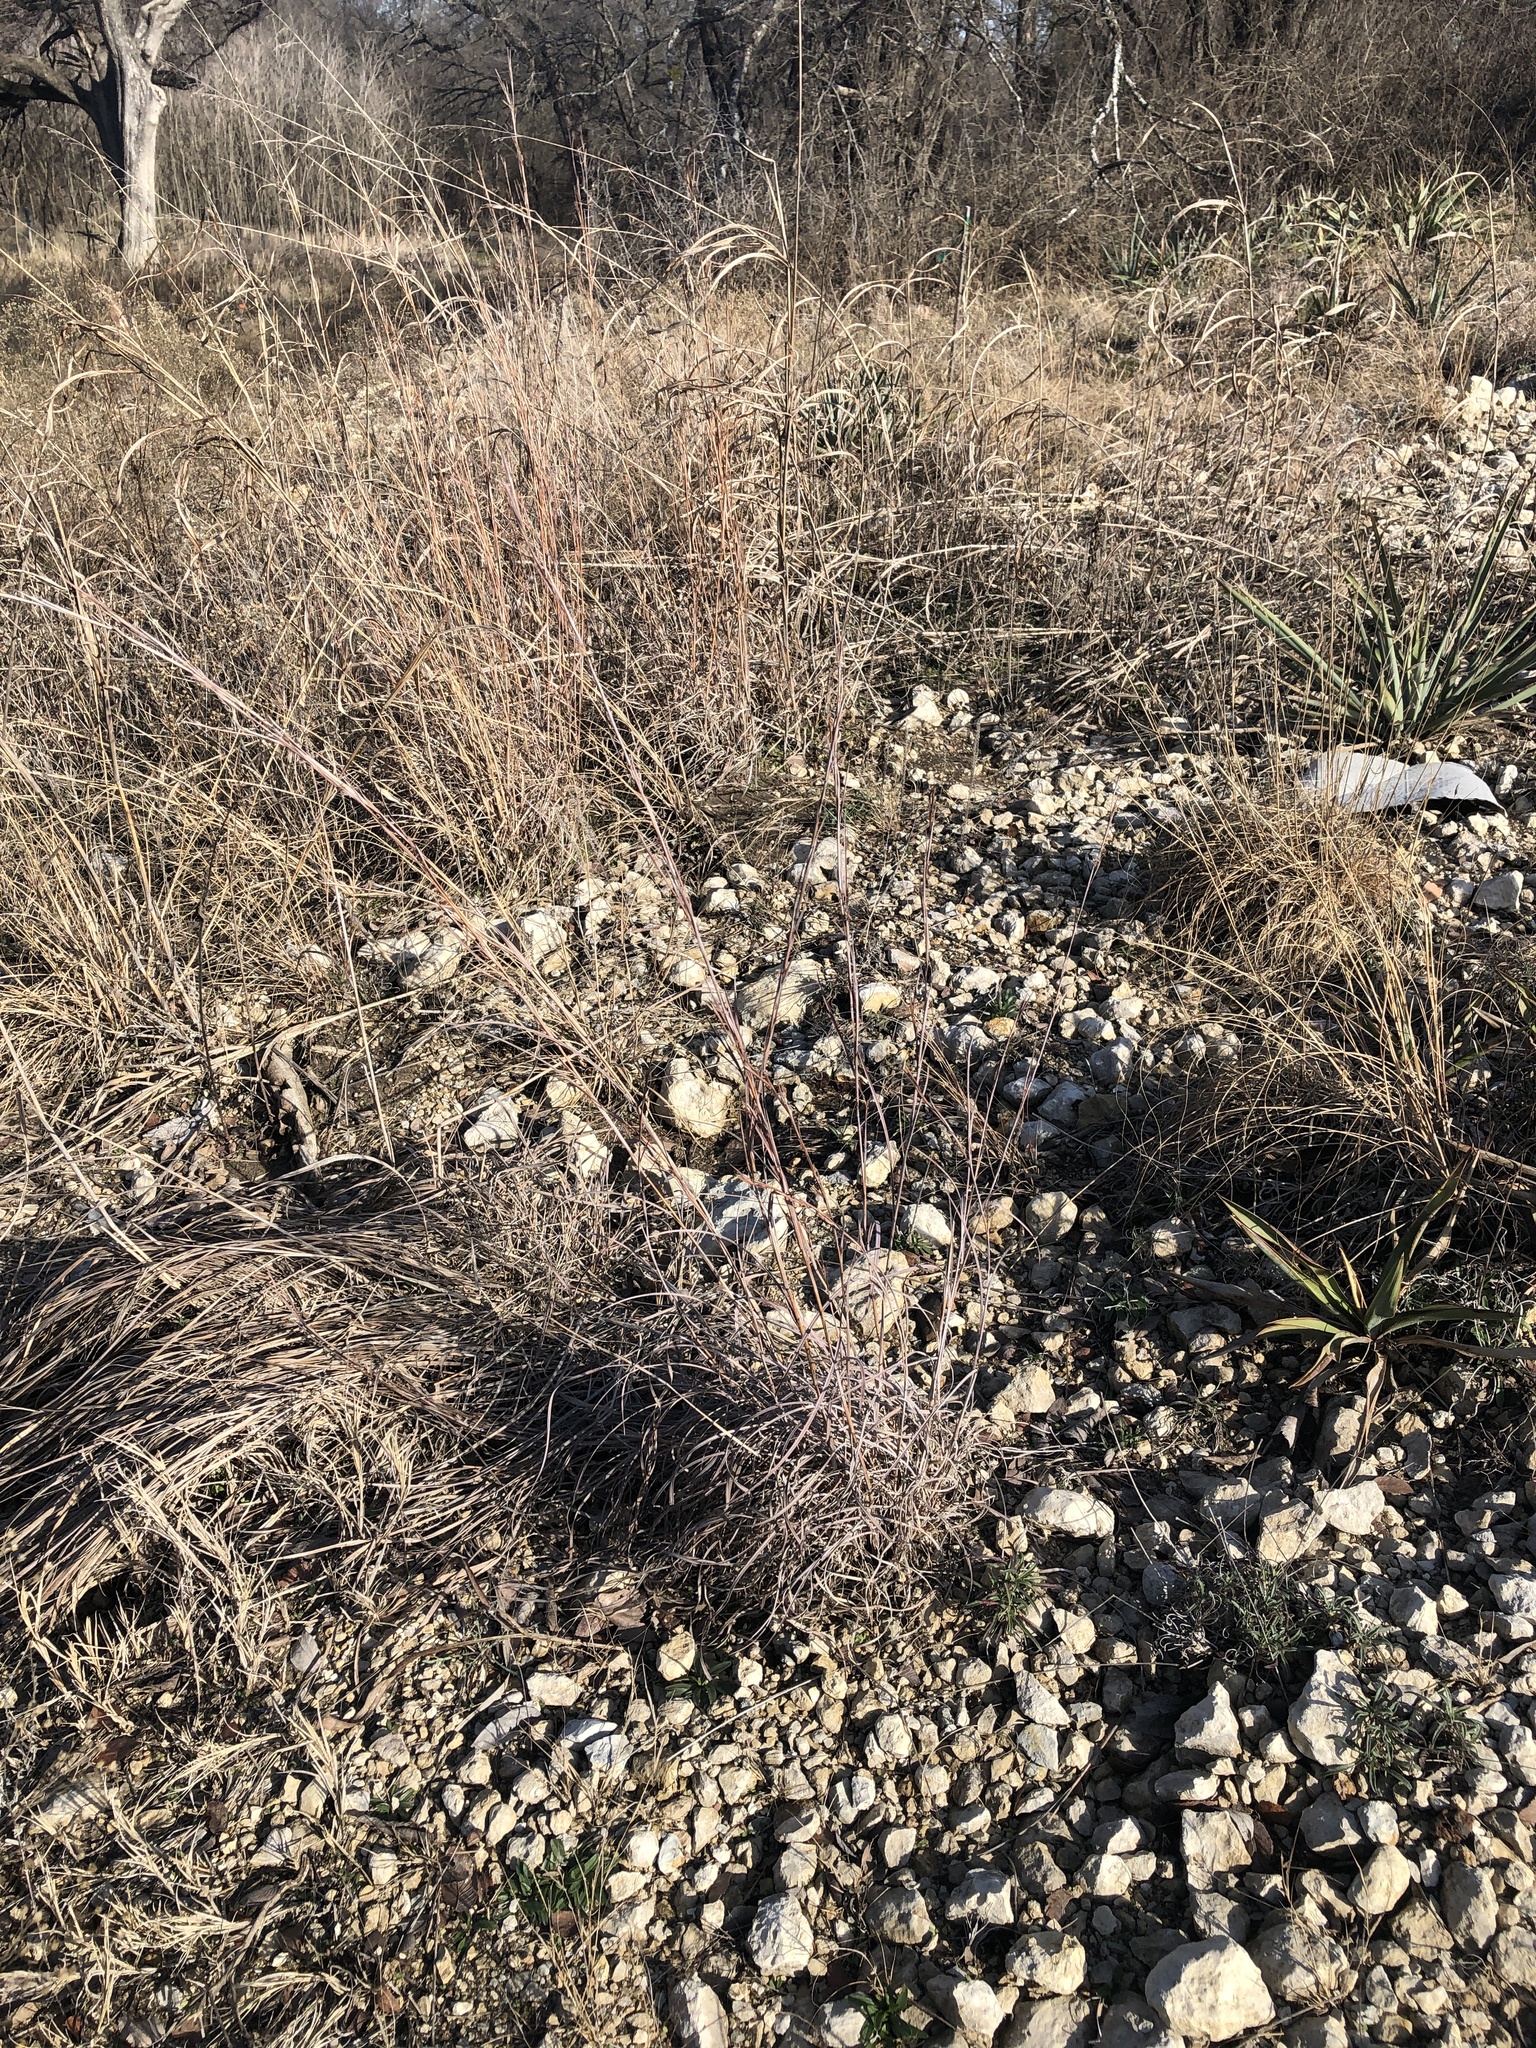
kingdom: Plantae
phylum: Tracheophyta
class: Liliopsida
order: Poales
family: Poaceae
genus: Schizachyrium
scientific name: Schizachyrium scoparium
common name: Little bluestem
